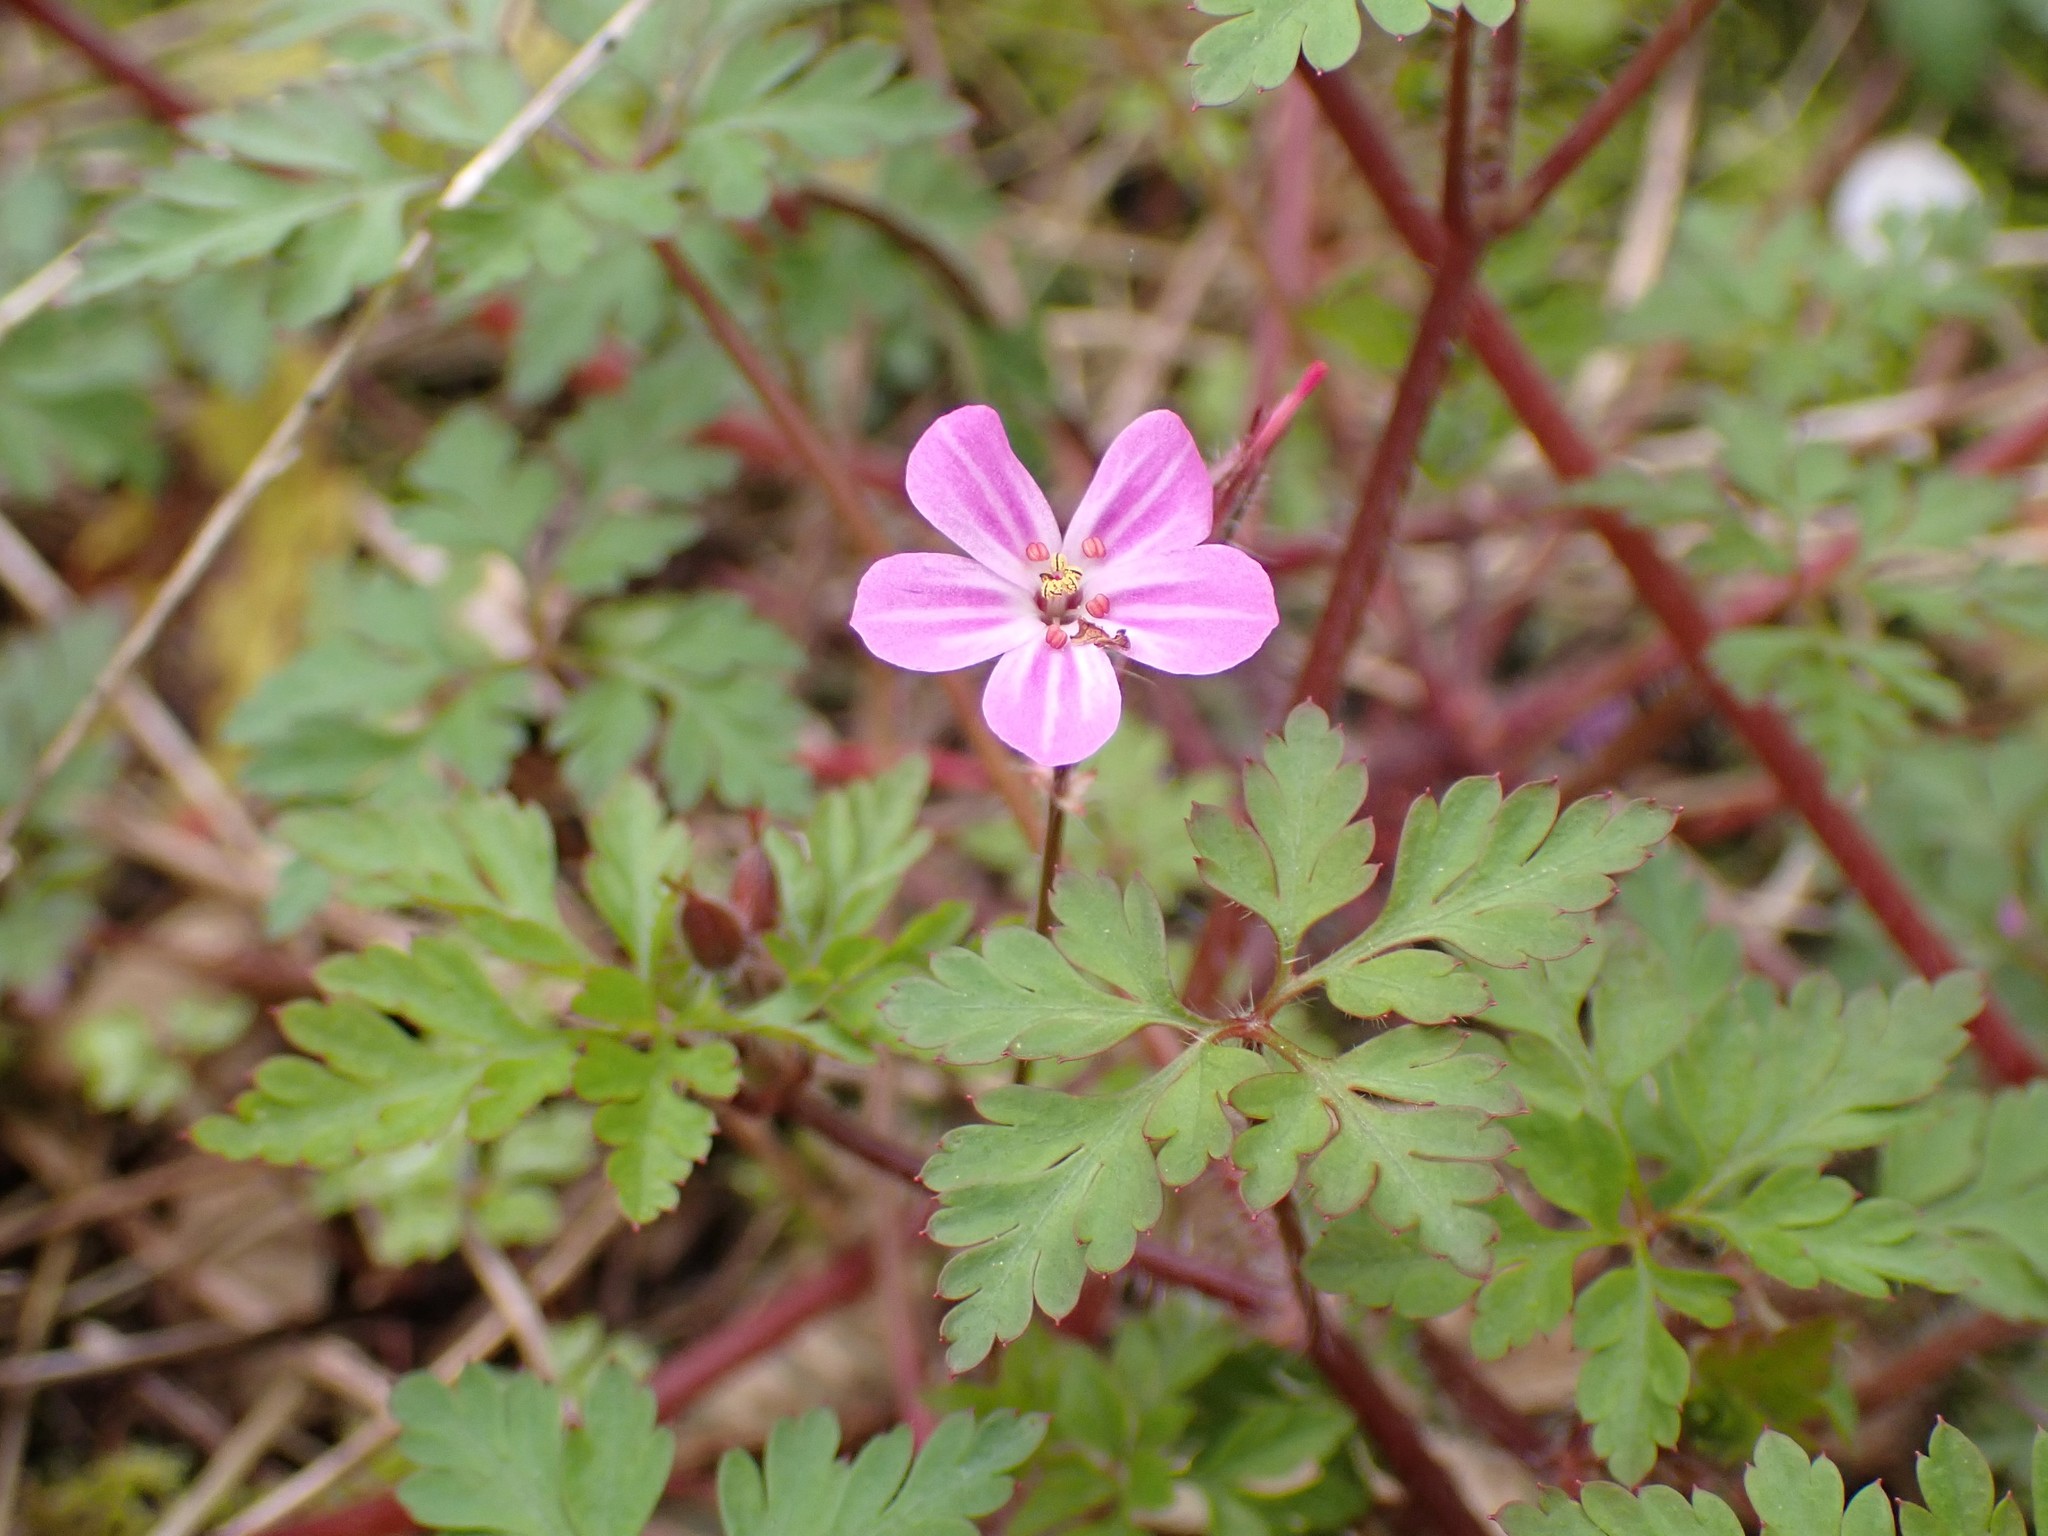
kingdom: Plantae
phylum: Tracheophyta
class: Magnoliopsida
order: Geraniales
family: Geraniaceae
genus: Geranium
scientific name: Geranium robertianum
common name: Herb-robert
